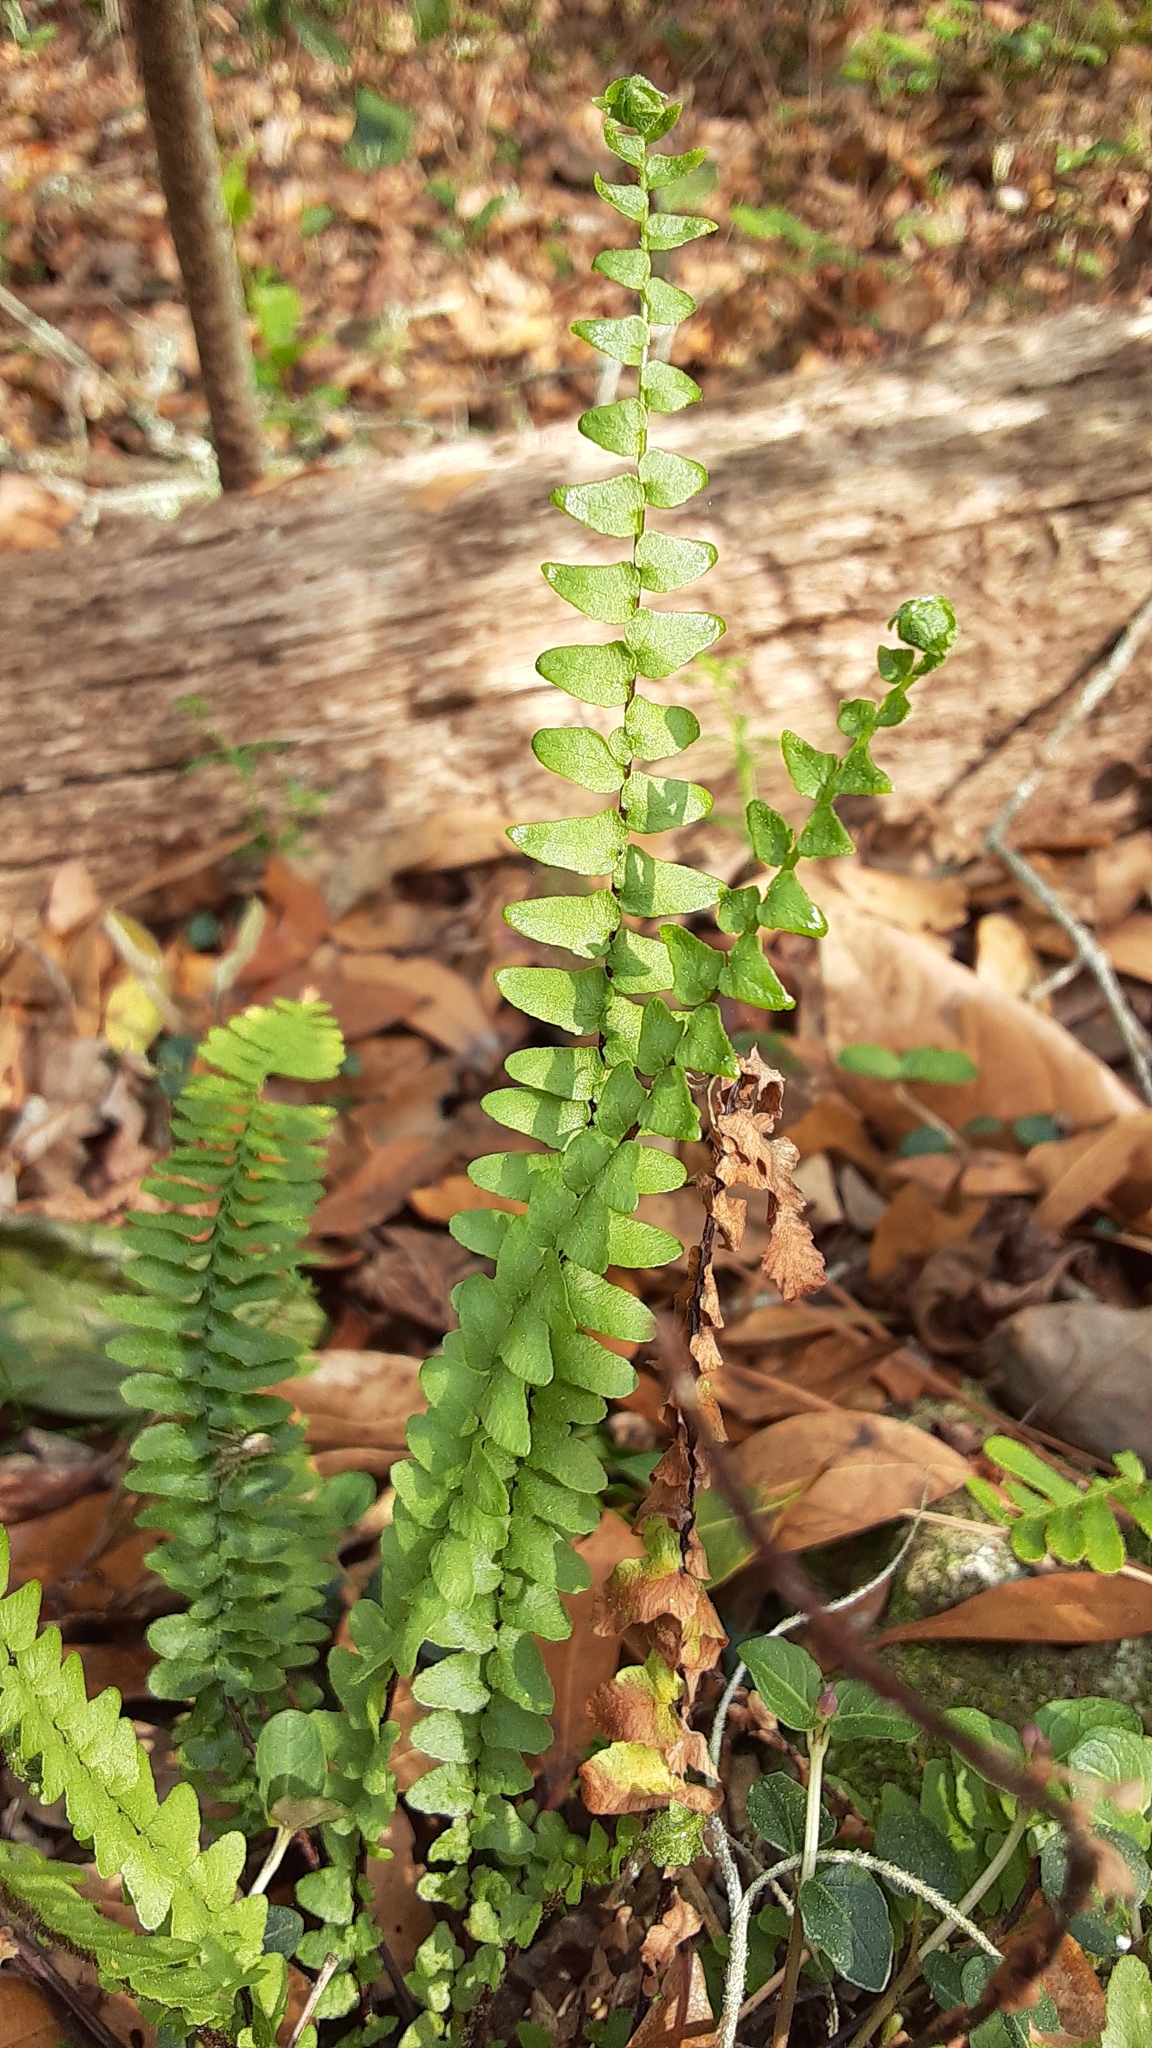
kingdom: Plantae
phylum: Tracheophyta
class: Polypodiopsida
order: Polypodiales
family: Aspleniaceae
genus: Asplenium
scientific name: Asplenium platyneuron
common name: Ebony spleenwort
